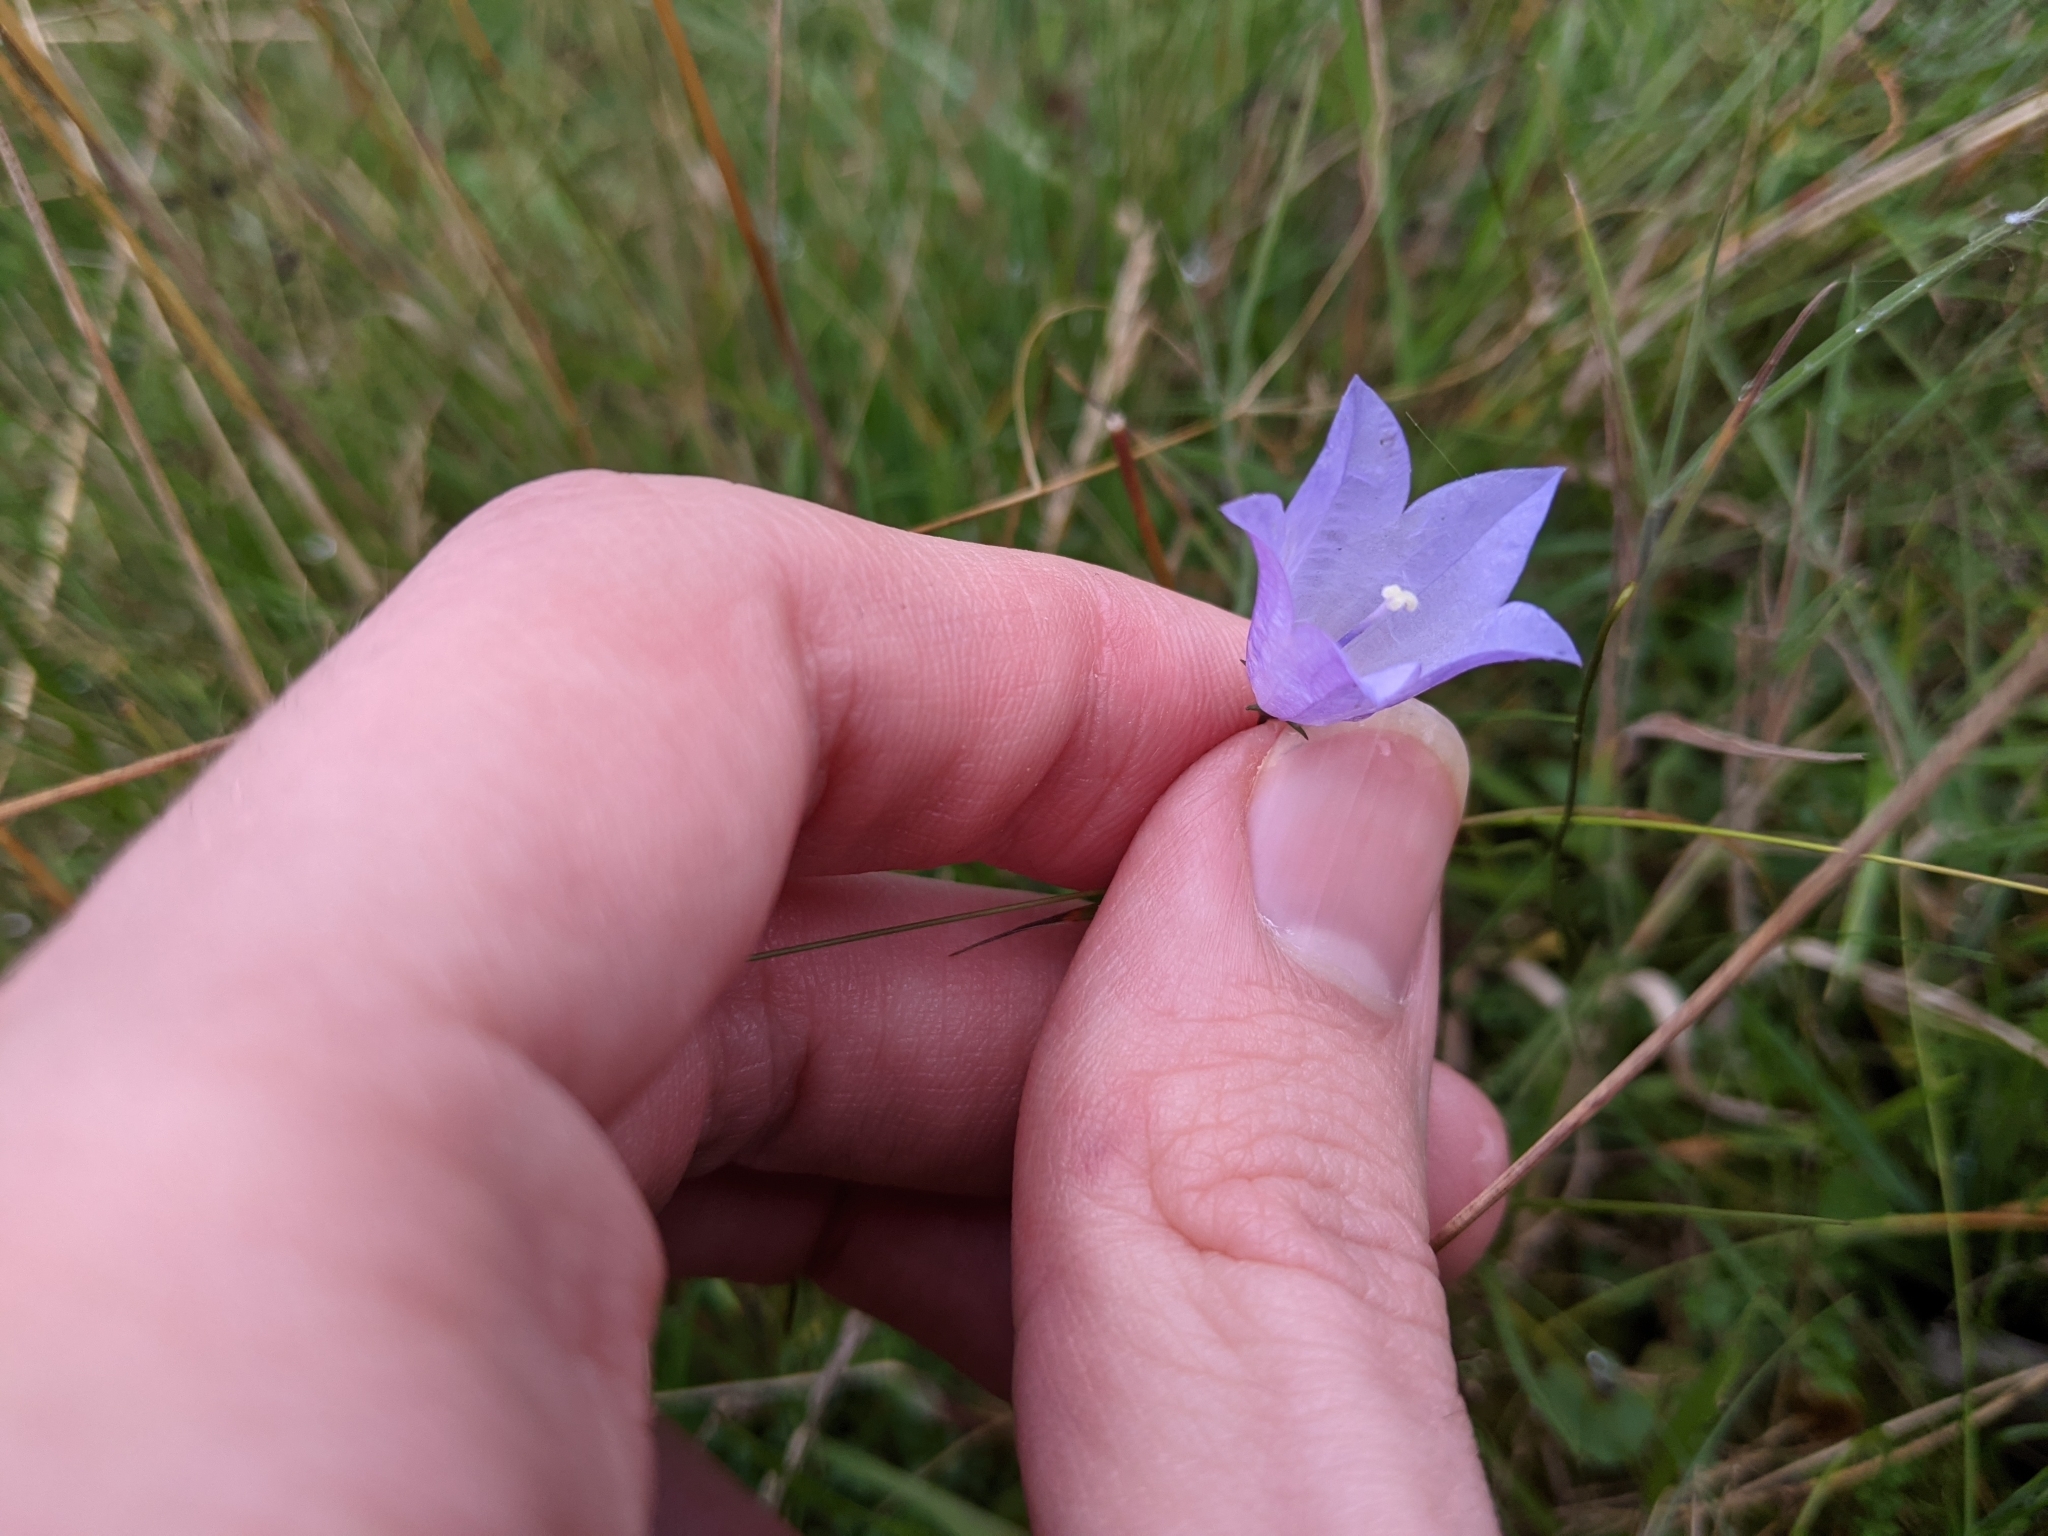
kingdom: Plantae
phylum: Tracheophyta
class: Magnoliopsida
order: Asterales
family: Campanulaceae
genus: Campanula
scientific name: Campanula rotundifolia
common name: Harebell
